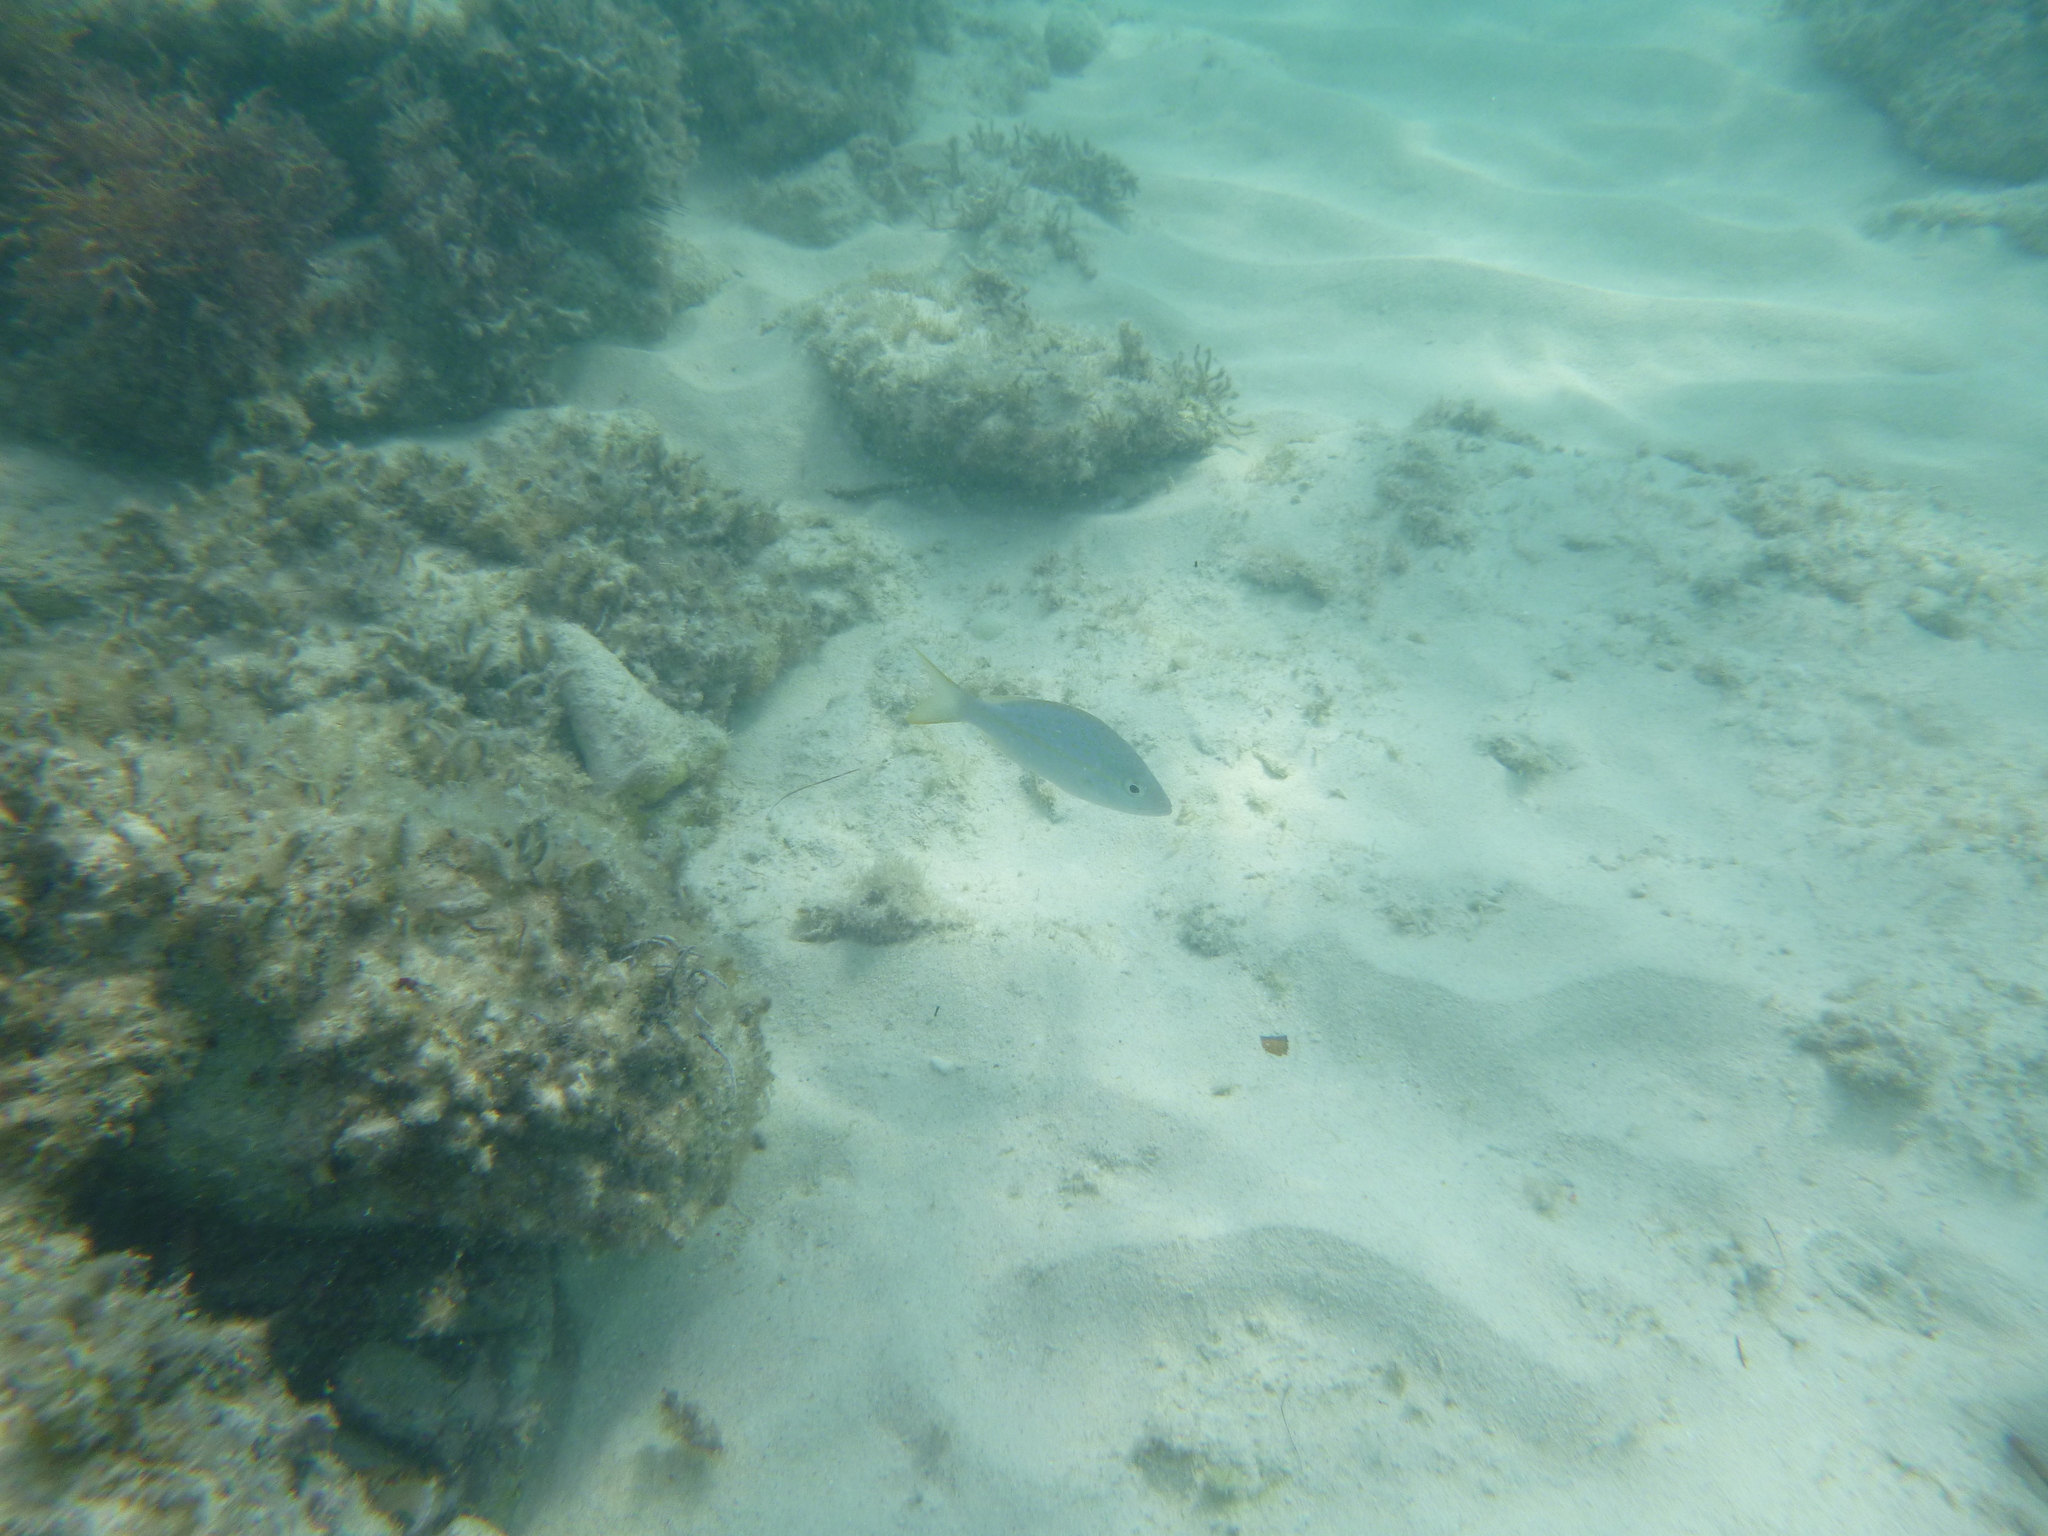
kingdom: Animalia
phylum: Chordata
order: Perciformes
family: Lutjanidae
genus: Ocyurus
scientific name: Ocyurus chrysurus
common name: Yellowtail snapper
